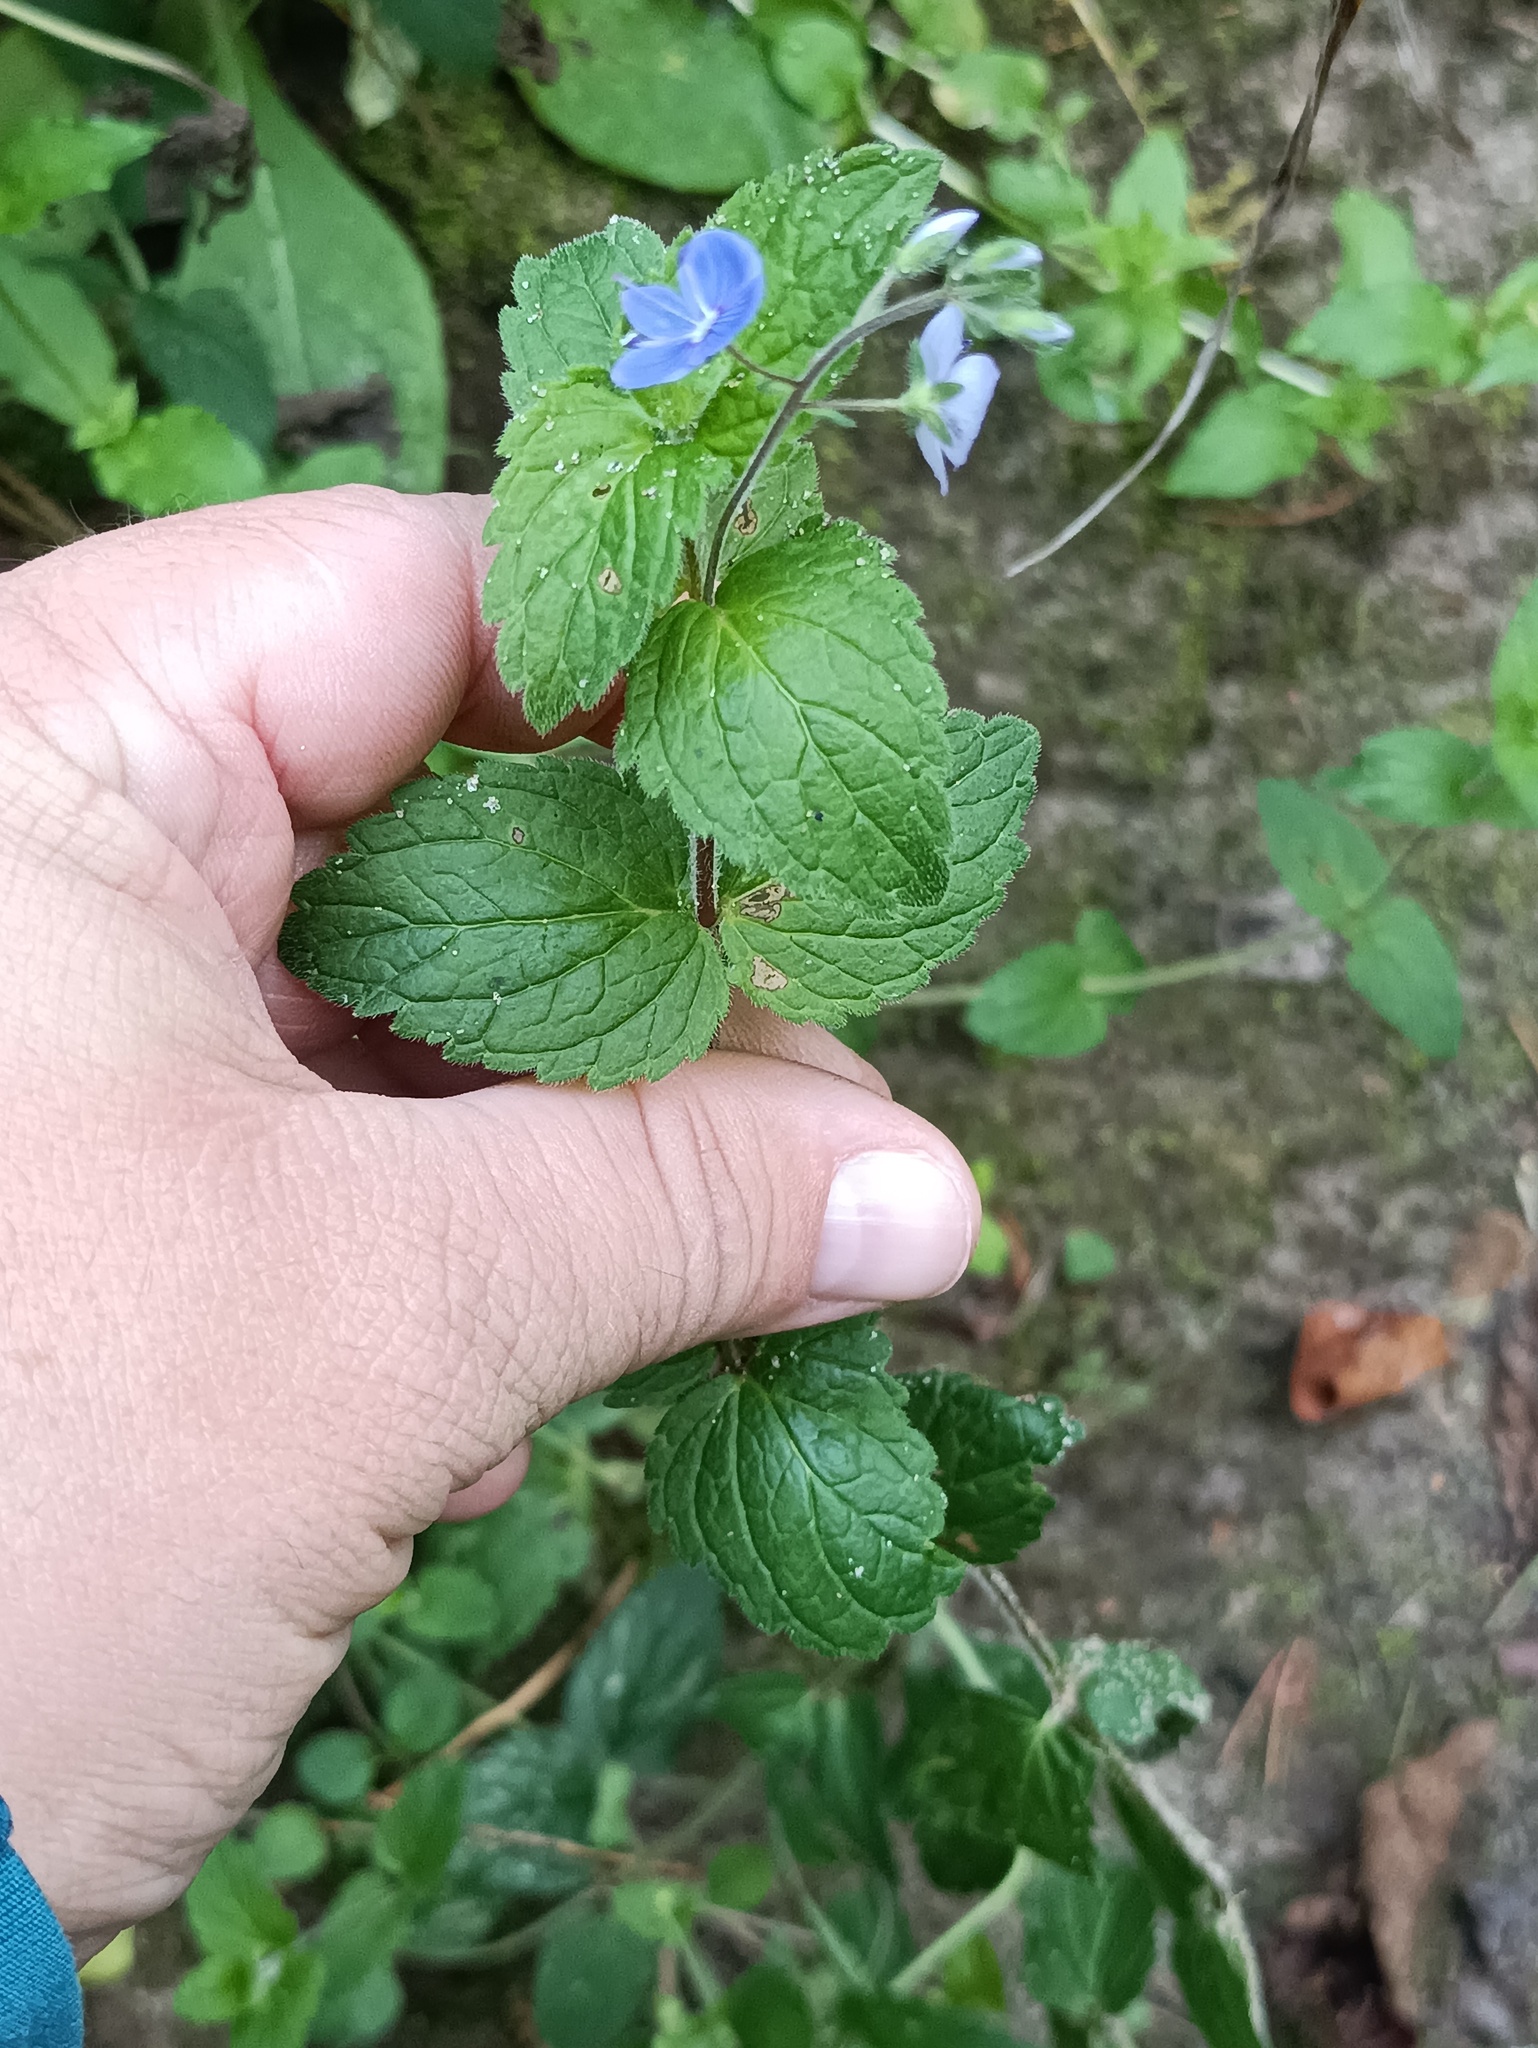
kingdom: Plantae
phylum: Tracheophyta
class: Magnoliopsida
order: Lamiales
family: Plantaginaceae
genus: Veronica
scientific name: Veronica chamaedrys
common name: Germander speedwell
